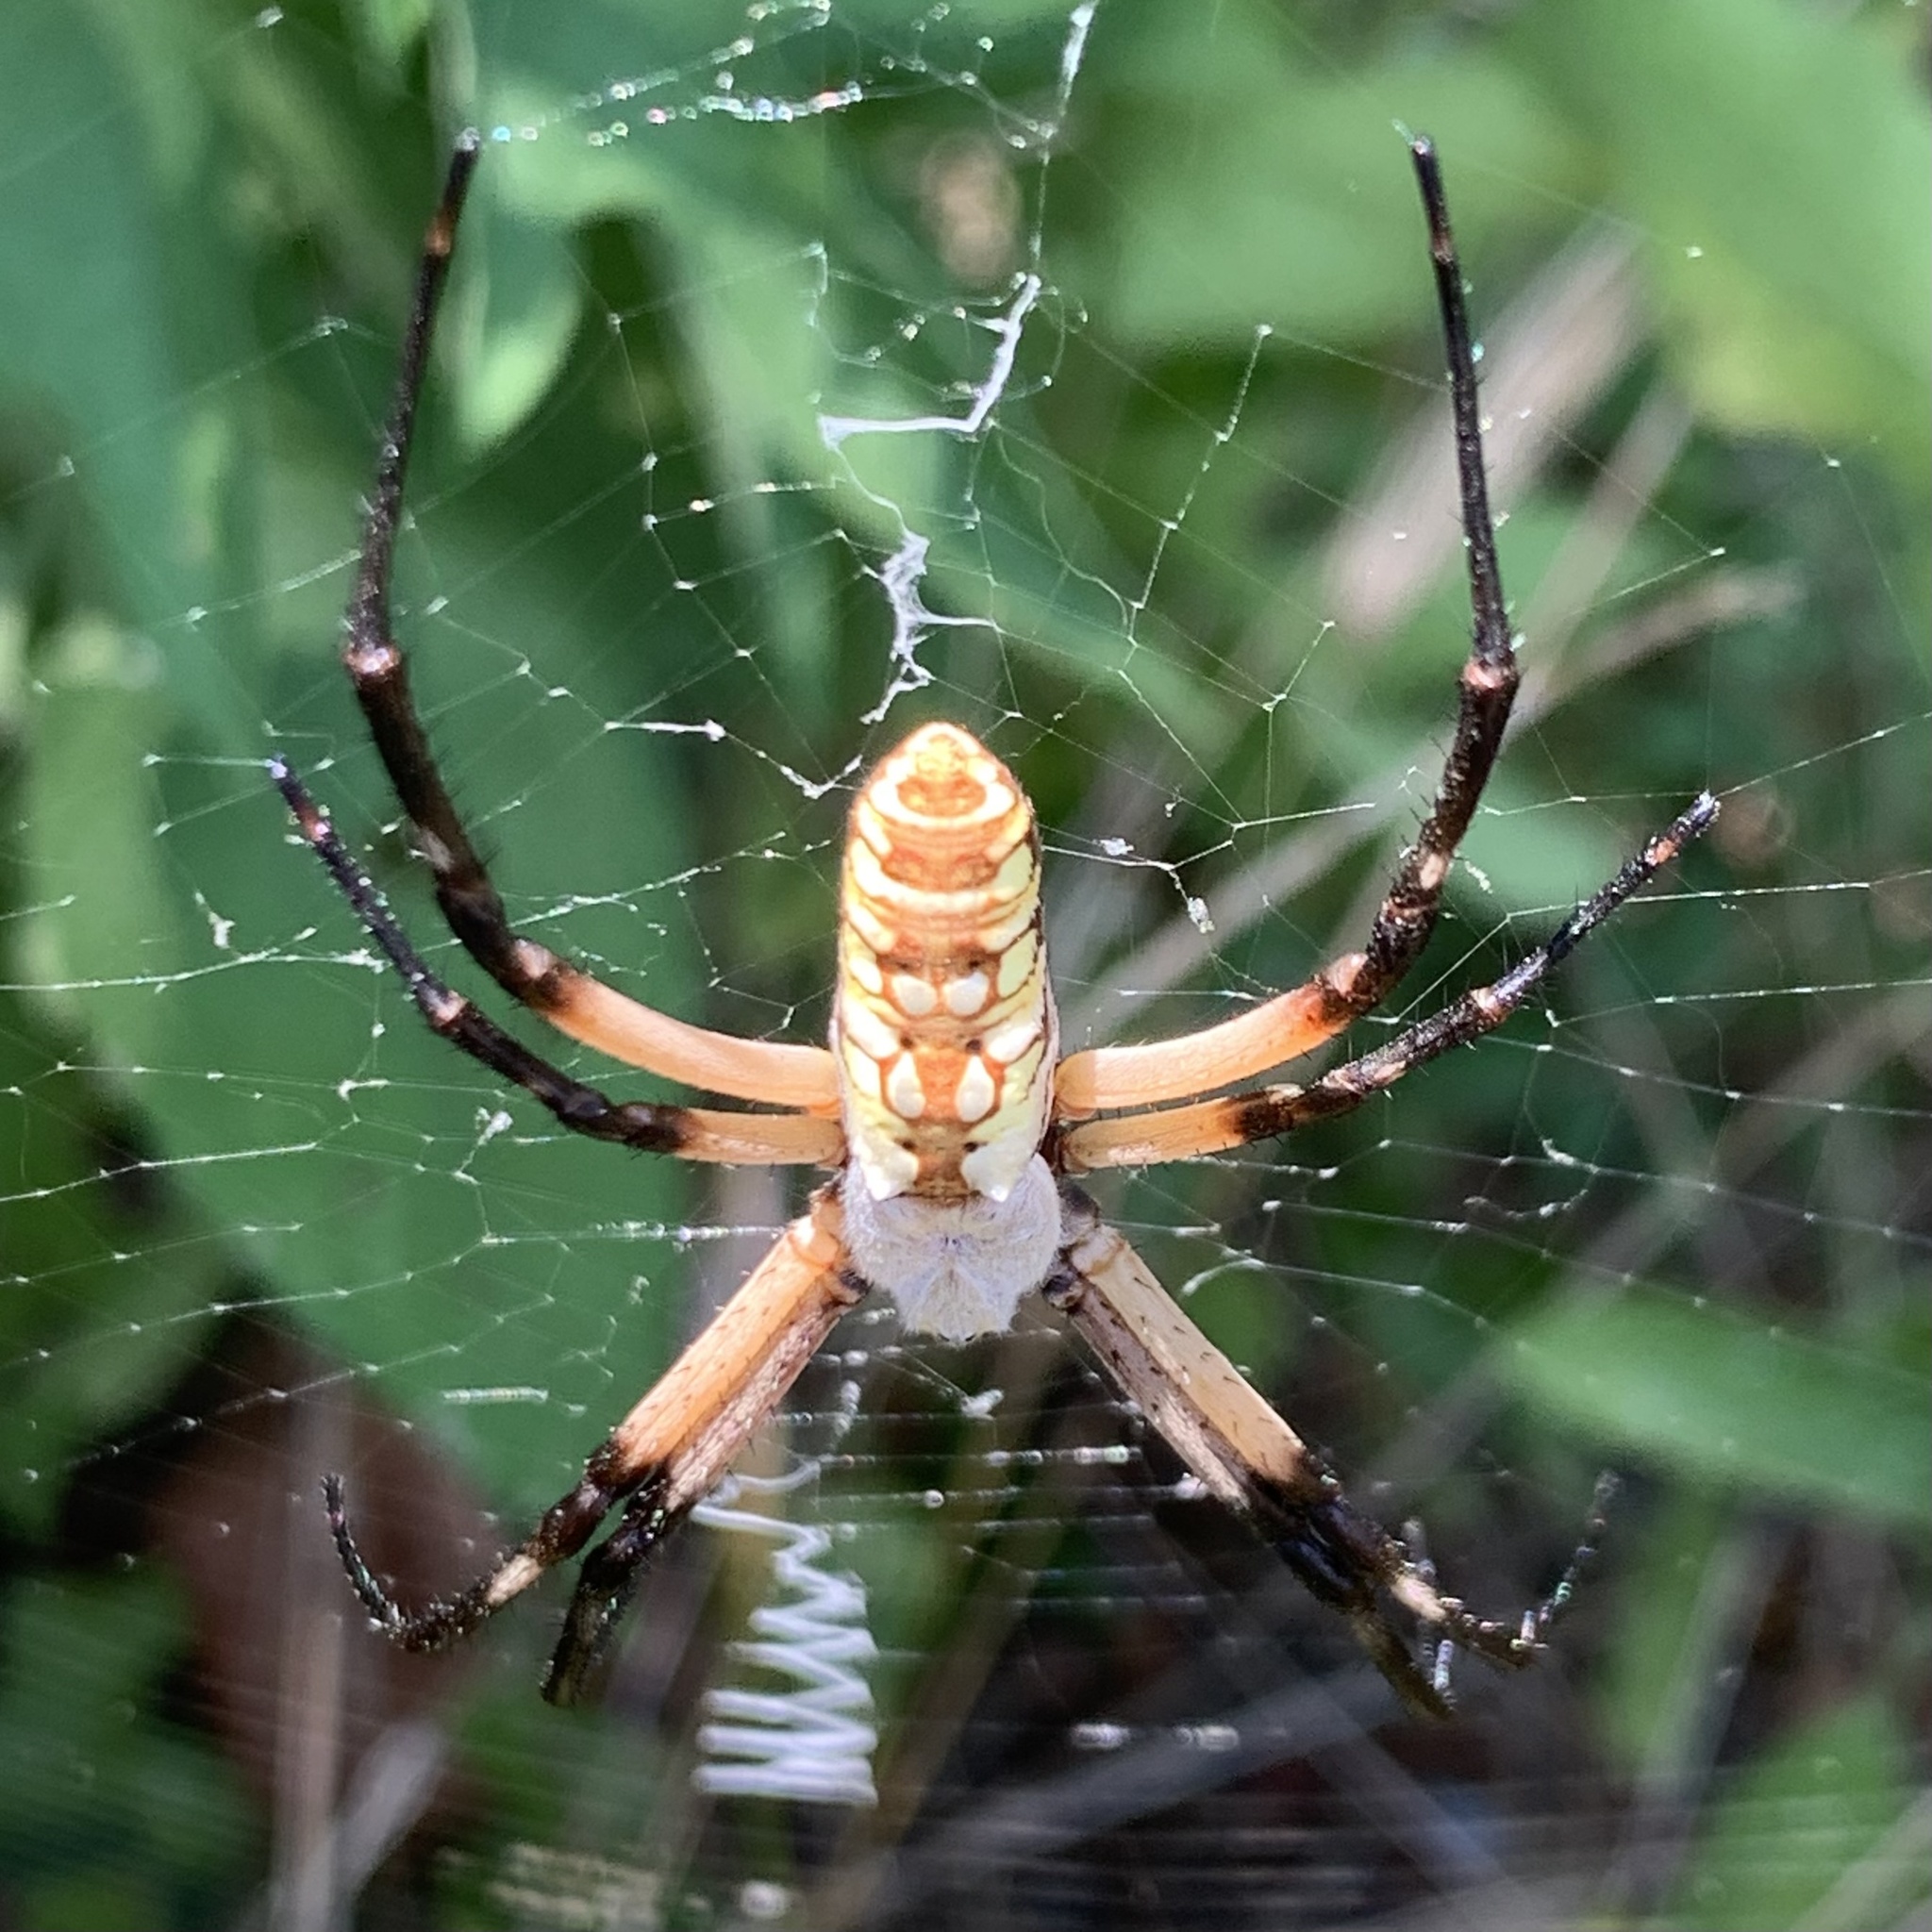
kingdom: Animalia
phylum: Arthropoda
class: Arachnida
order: Araneae
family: Araneidae
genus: Argiope
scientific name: Argiope aurantia
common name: Orb weavers
